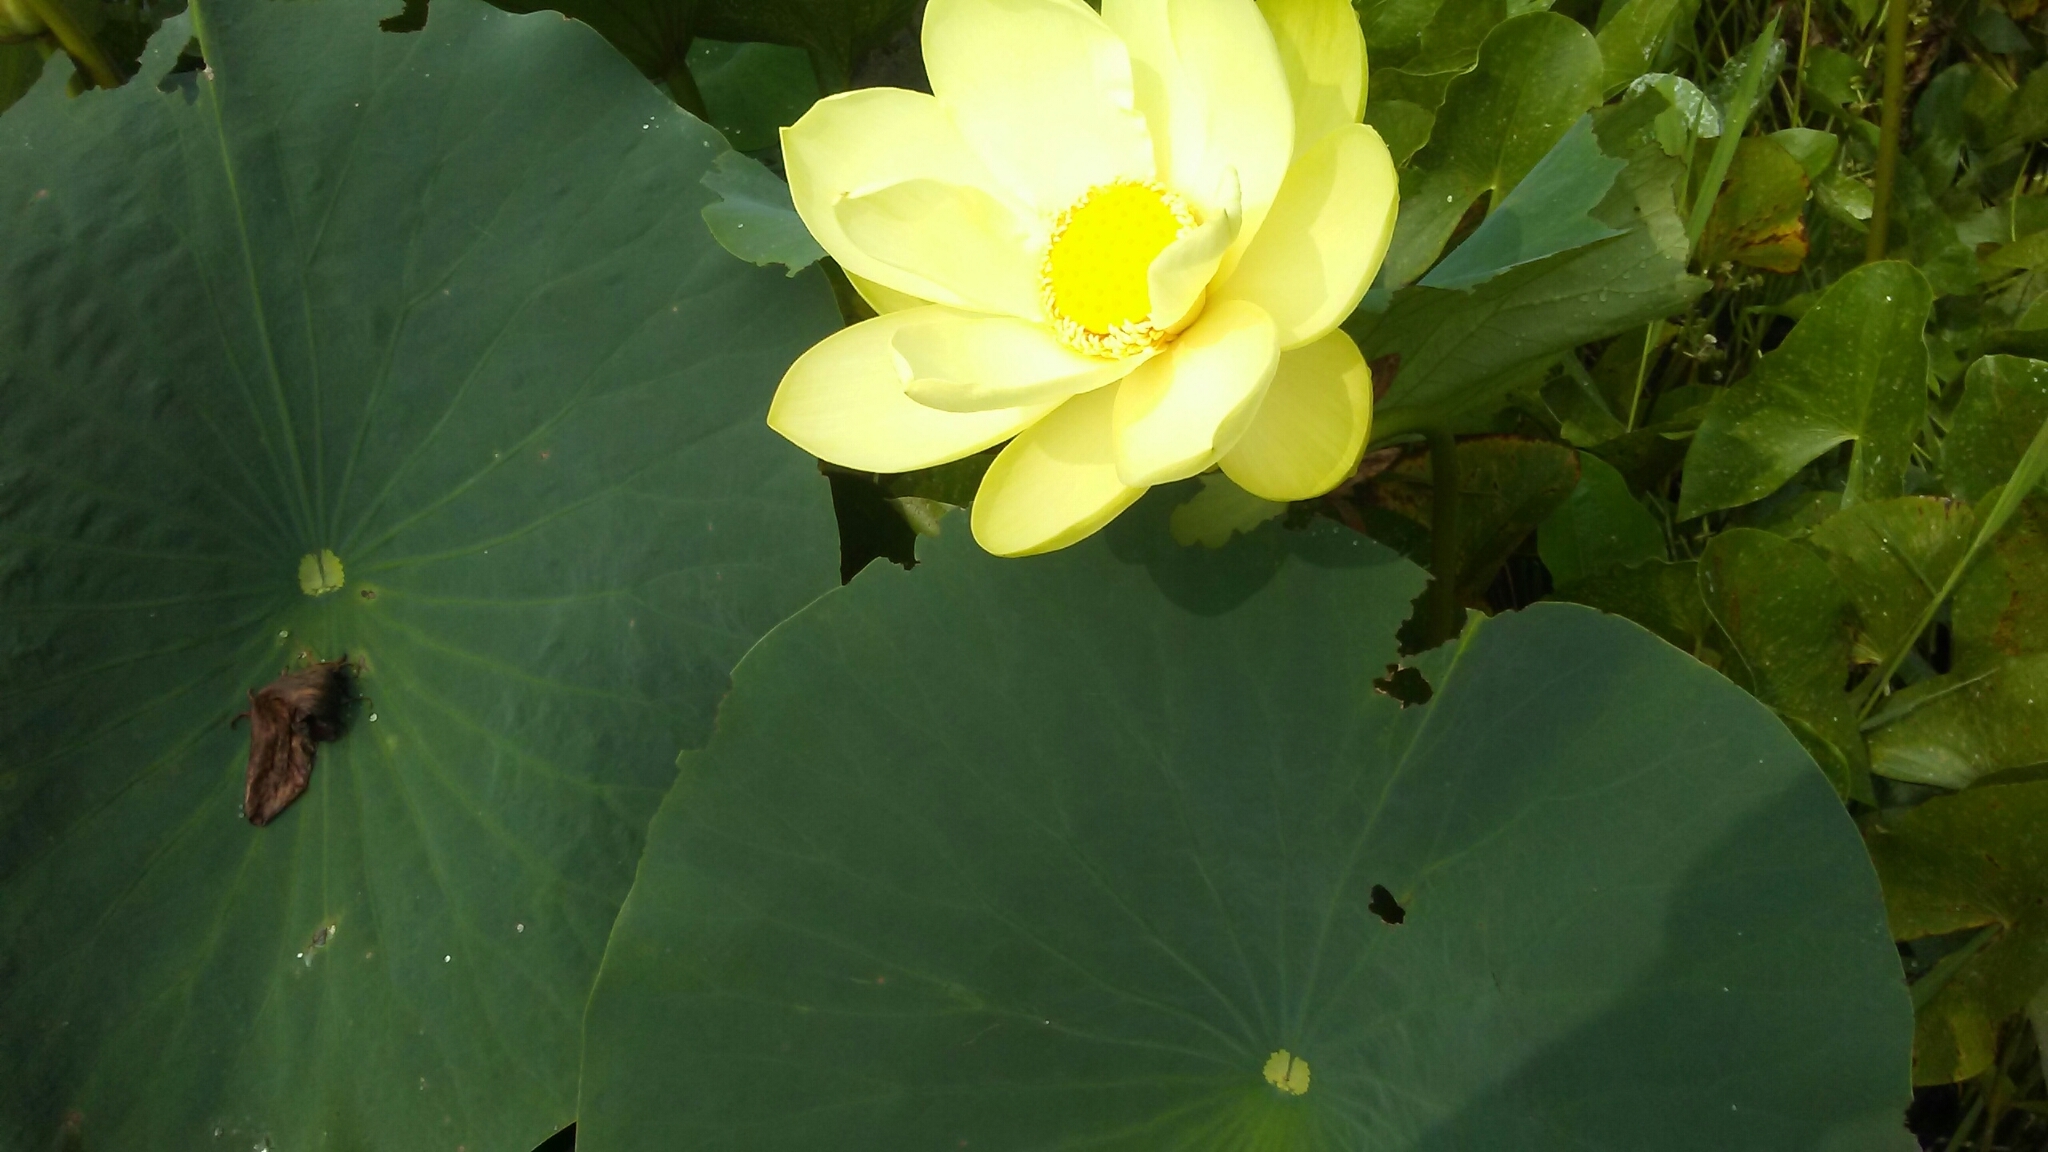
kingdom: Plantae
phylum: Tracheophyta
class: Magnoliopsida
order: Proteales
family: Nelumbonaceae
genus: Nelumbo
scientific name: Nelumbo lutea
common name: American lotus
